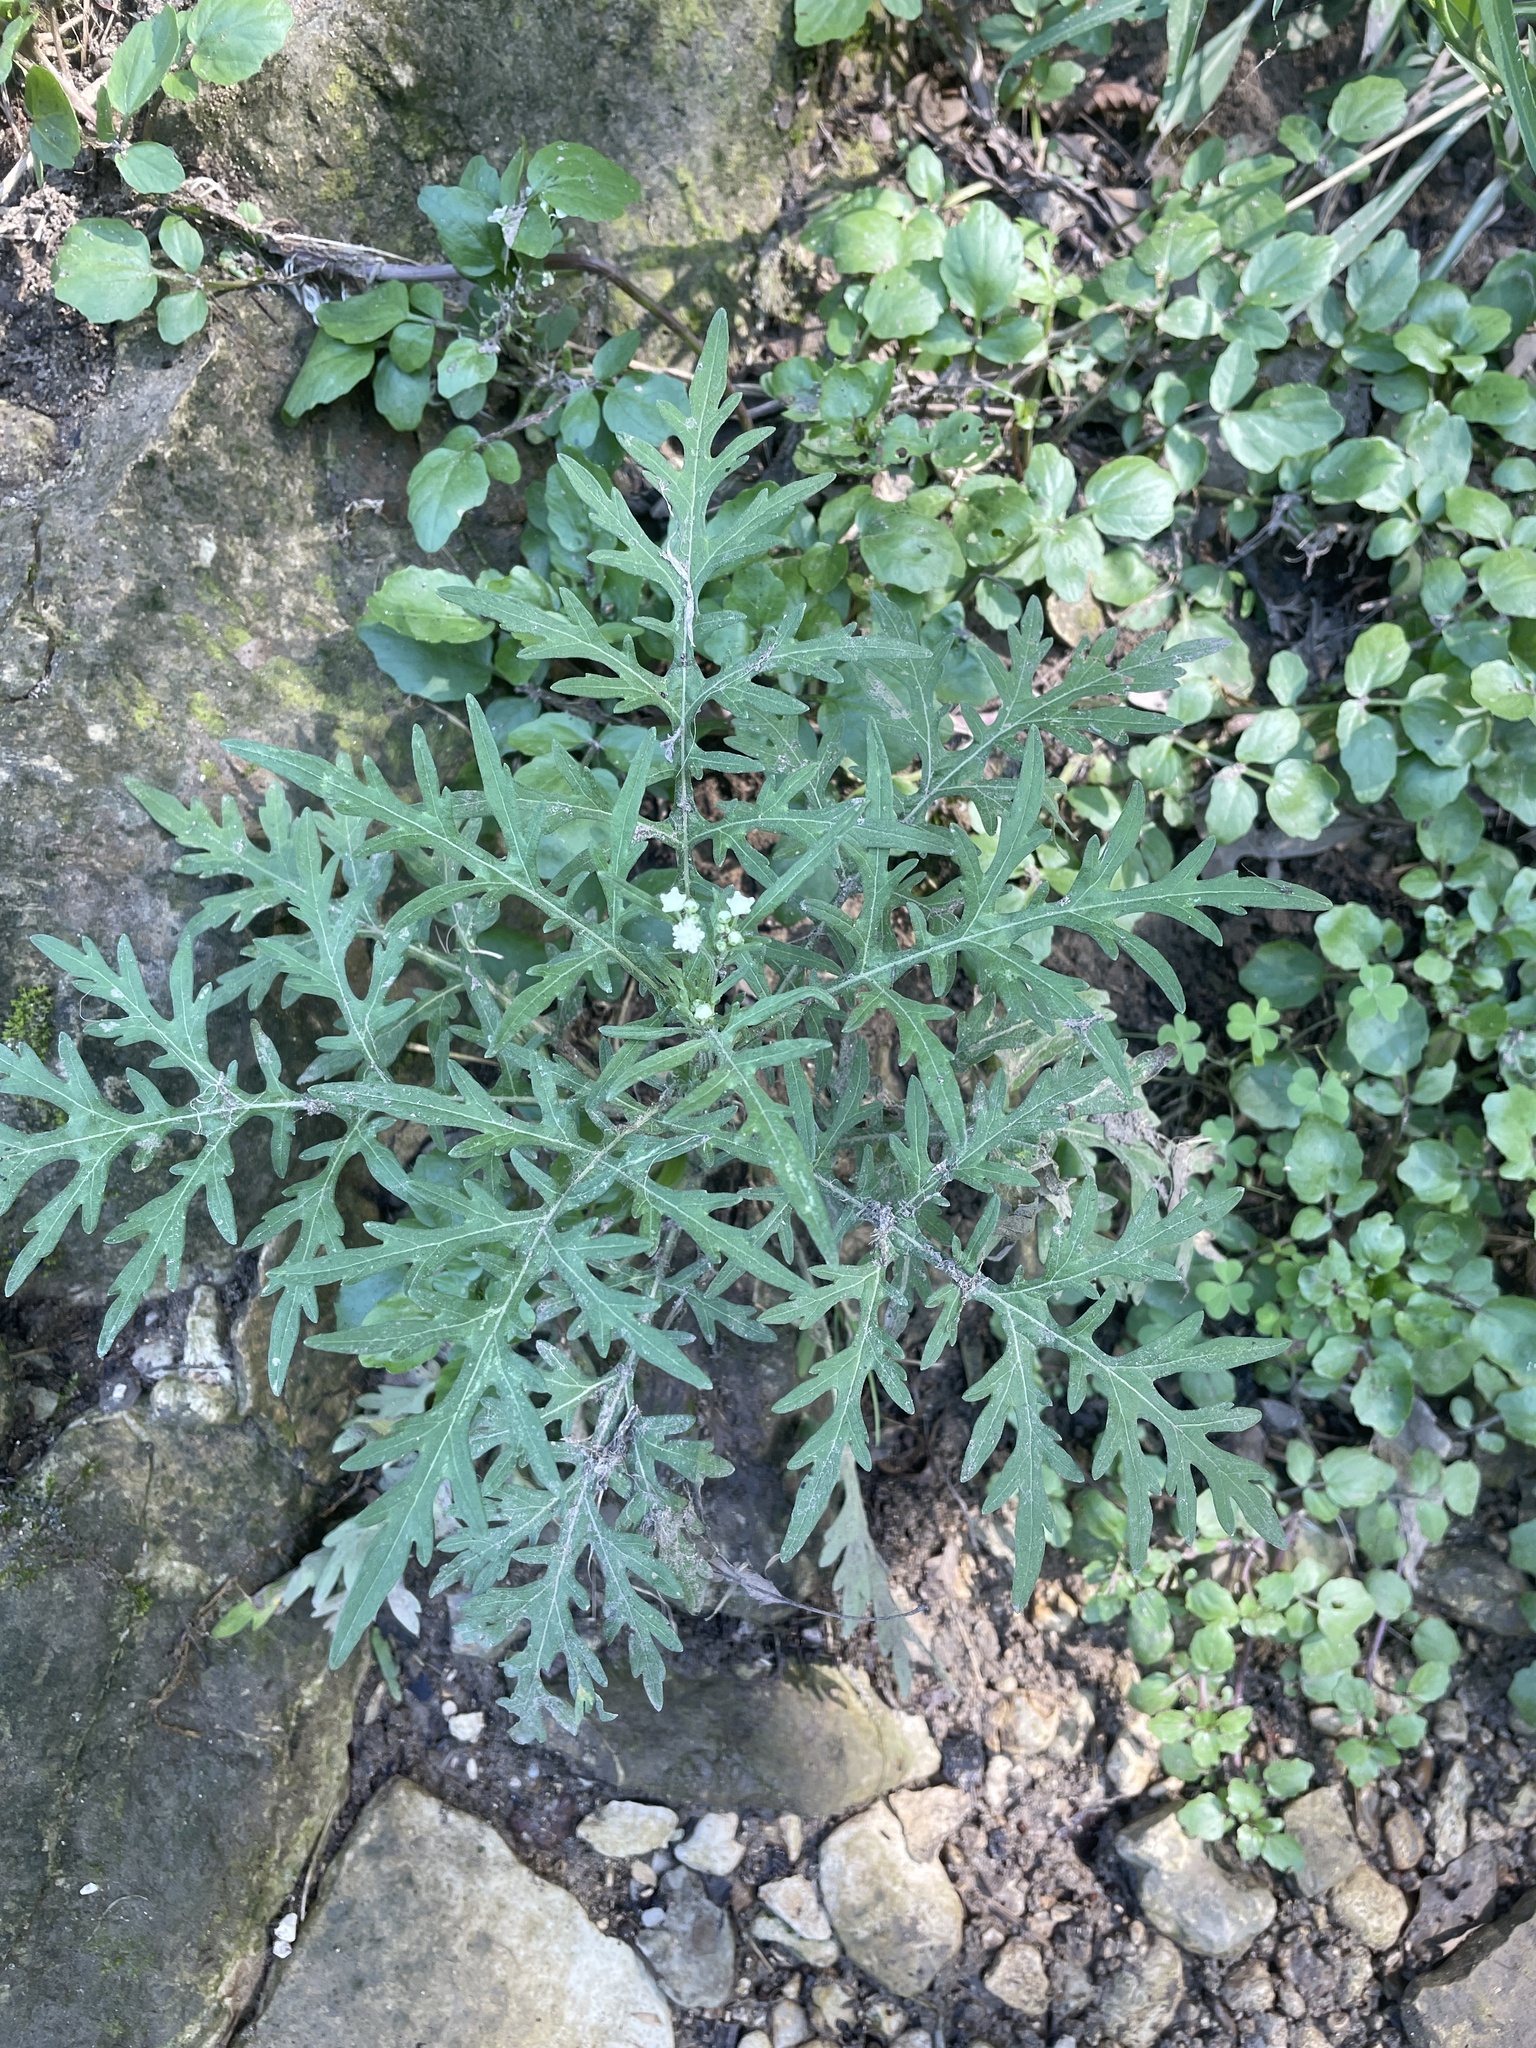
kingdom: Plantae
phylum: Tracheophyta
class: Magnoliopsida
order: Asterales
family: Asteraceae
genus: Parthenium
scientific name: Parthenium hysterophorus
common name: Santa maria feverfew
